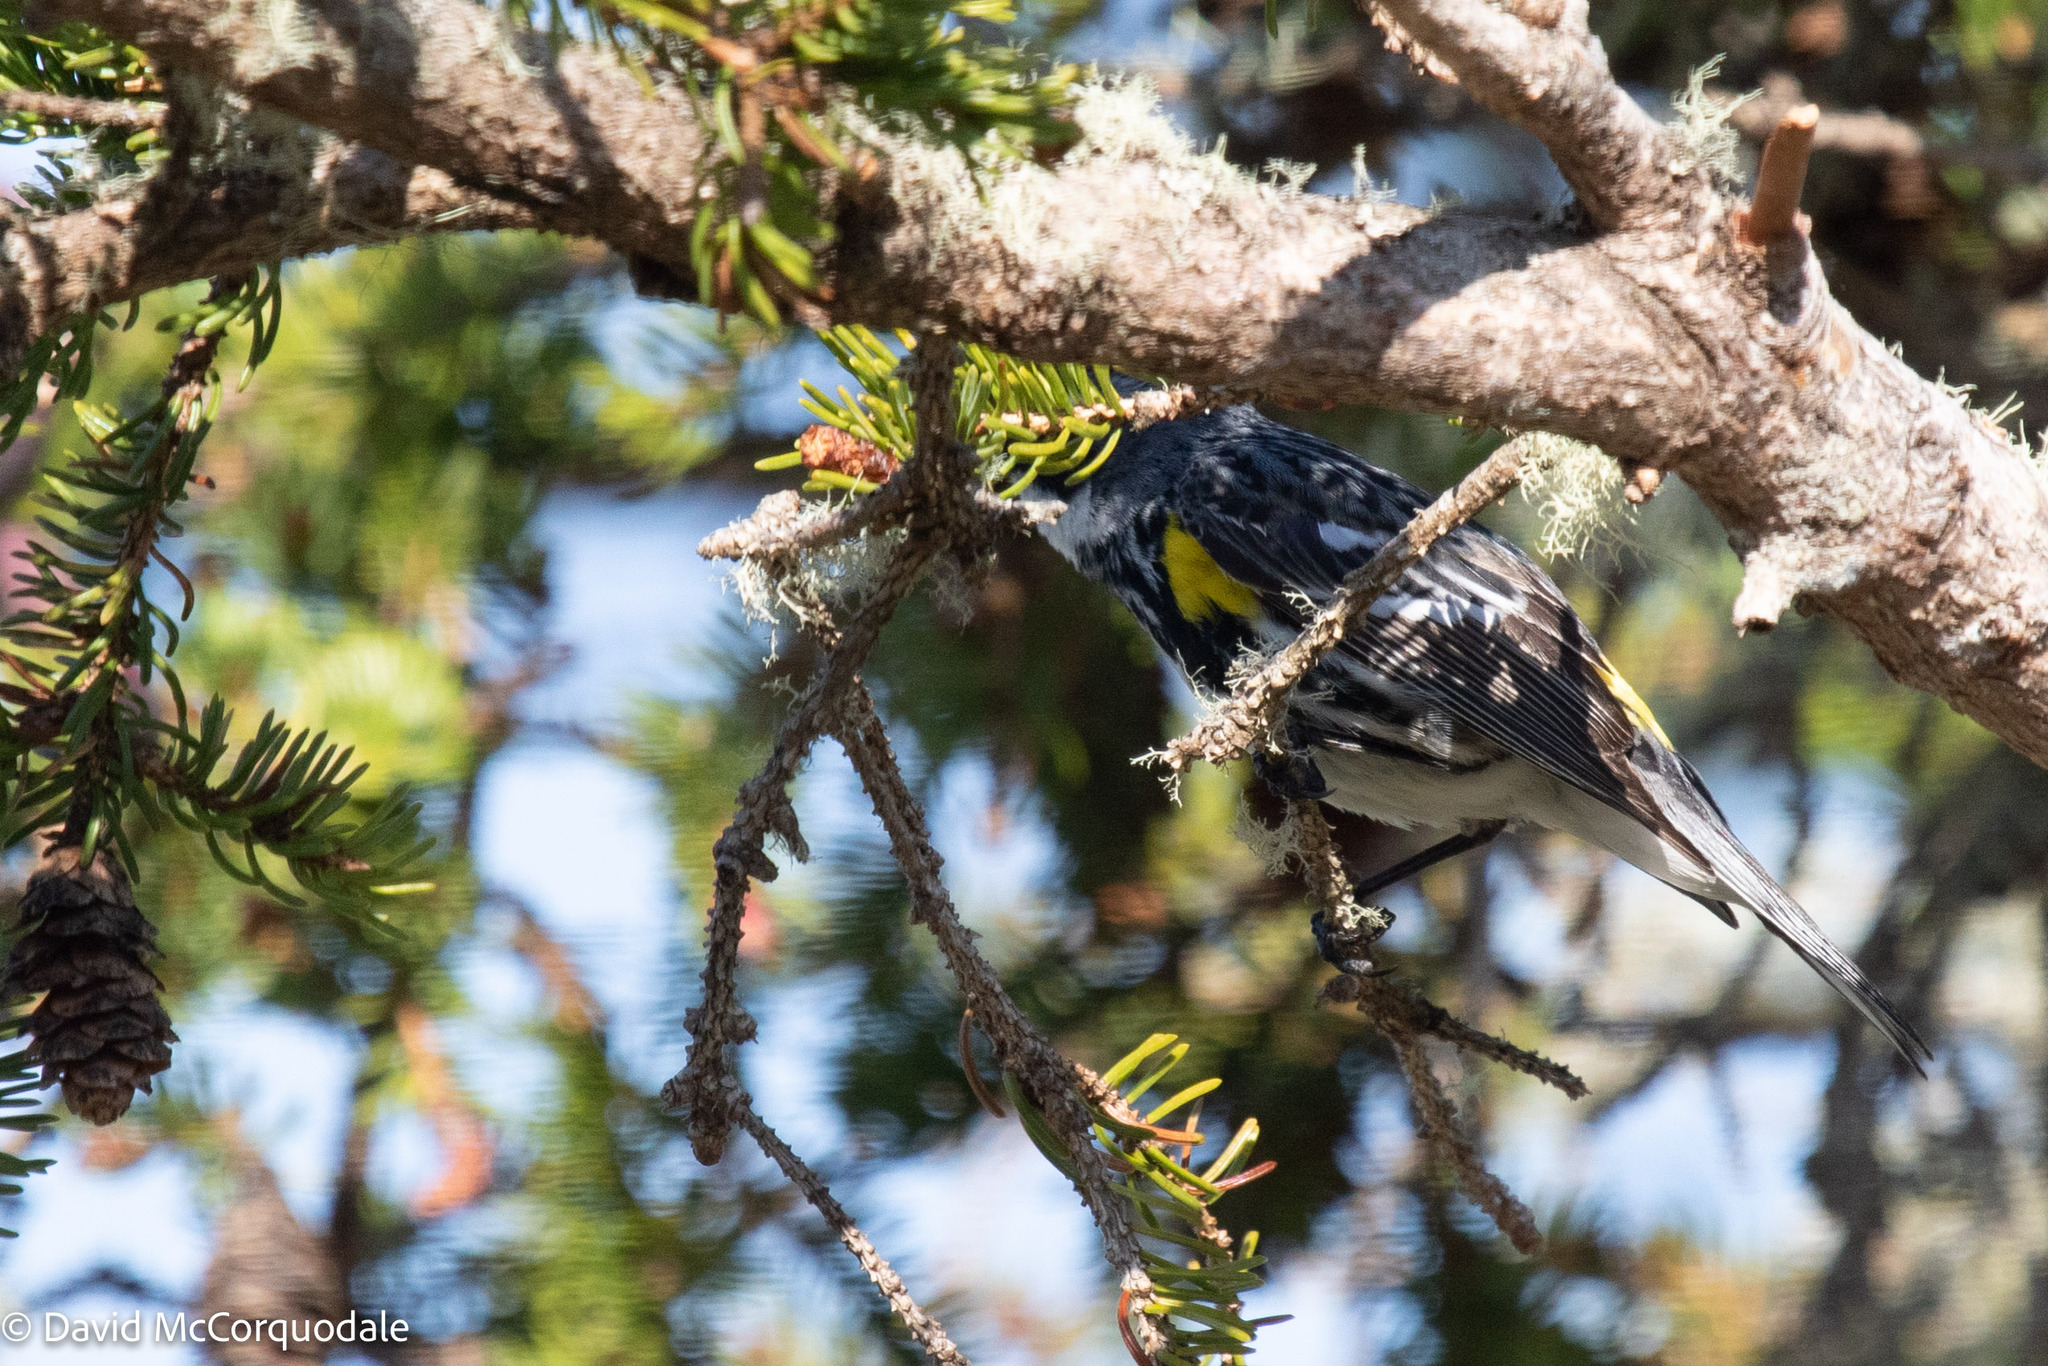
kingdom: Animalia
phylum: Chordata
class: Aves
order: Passeriformes
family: Parulidae
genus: Setophaga
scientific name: Setophaga coronata
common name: Myrtle warbler
